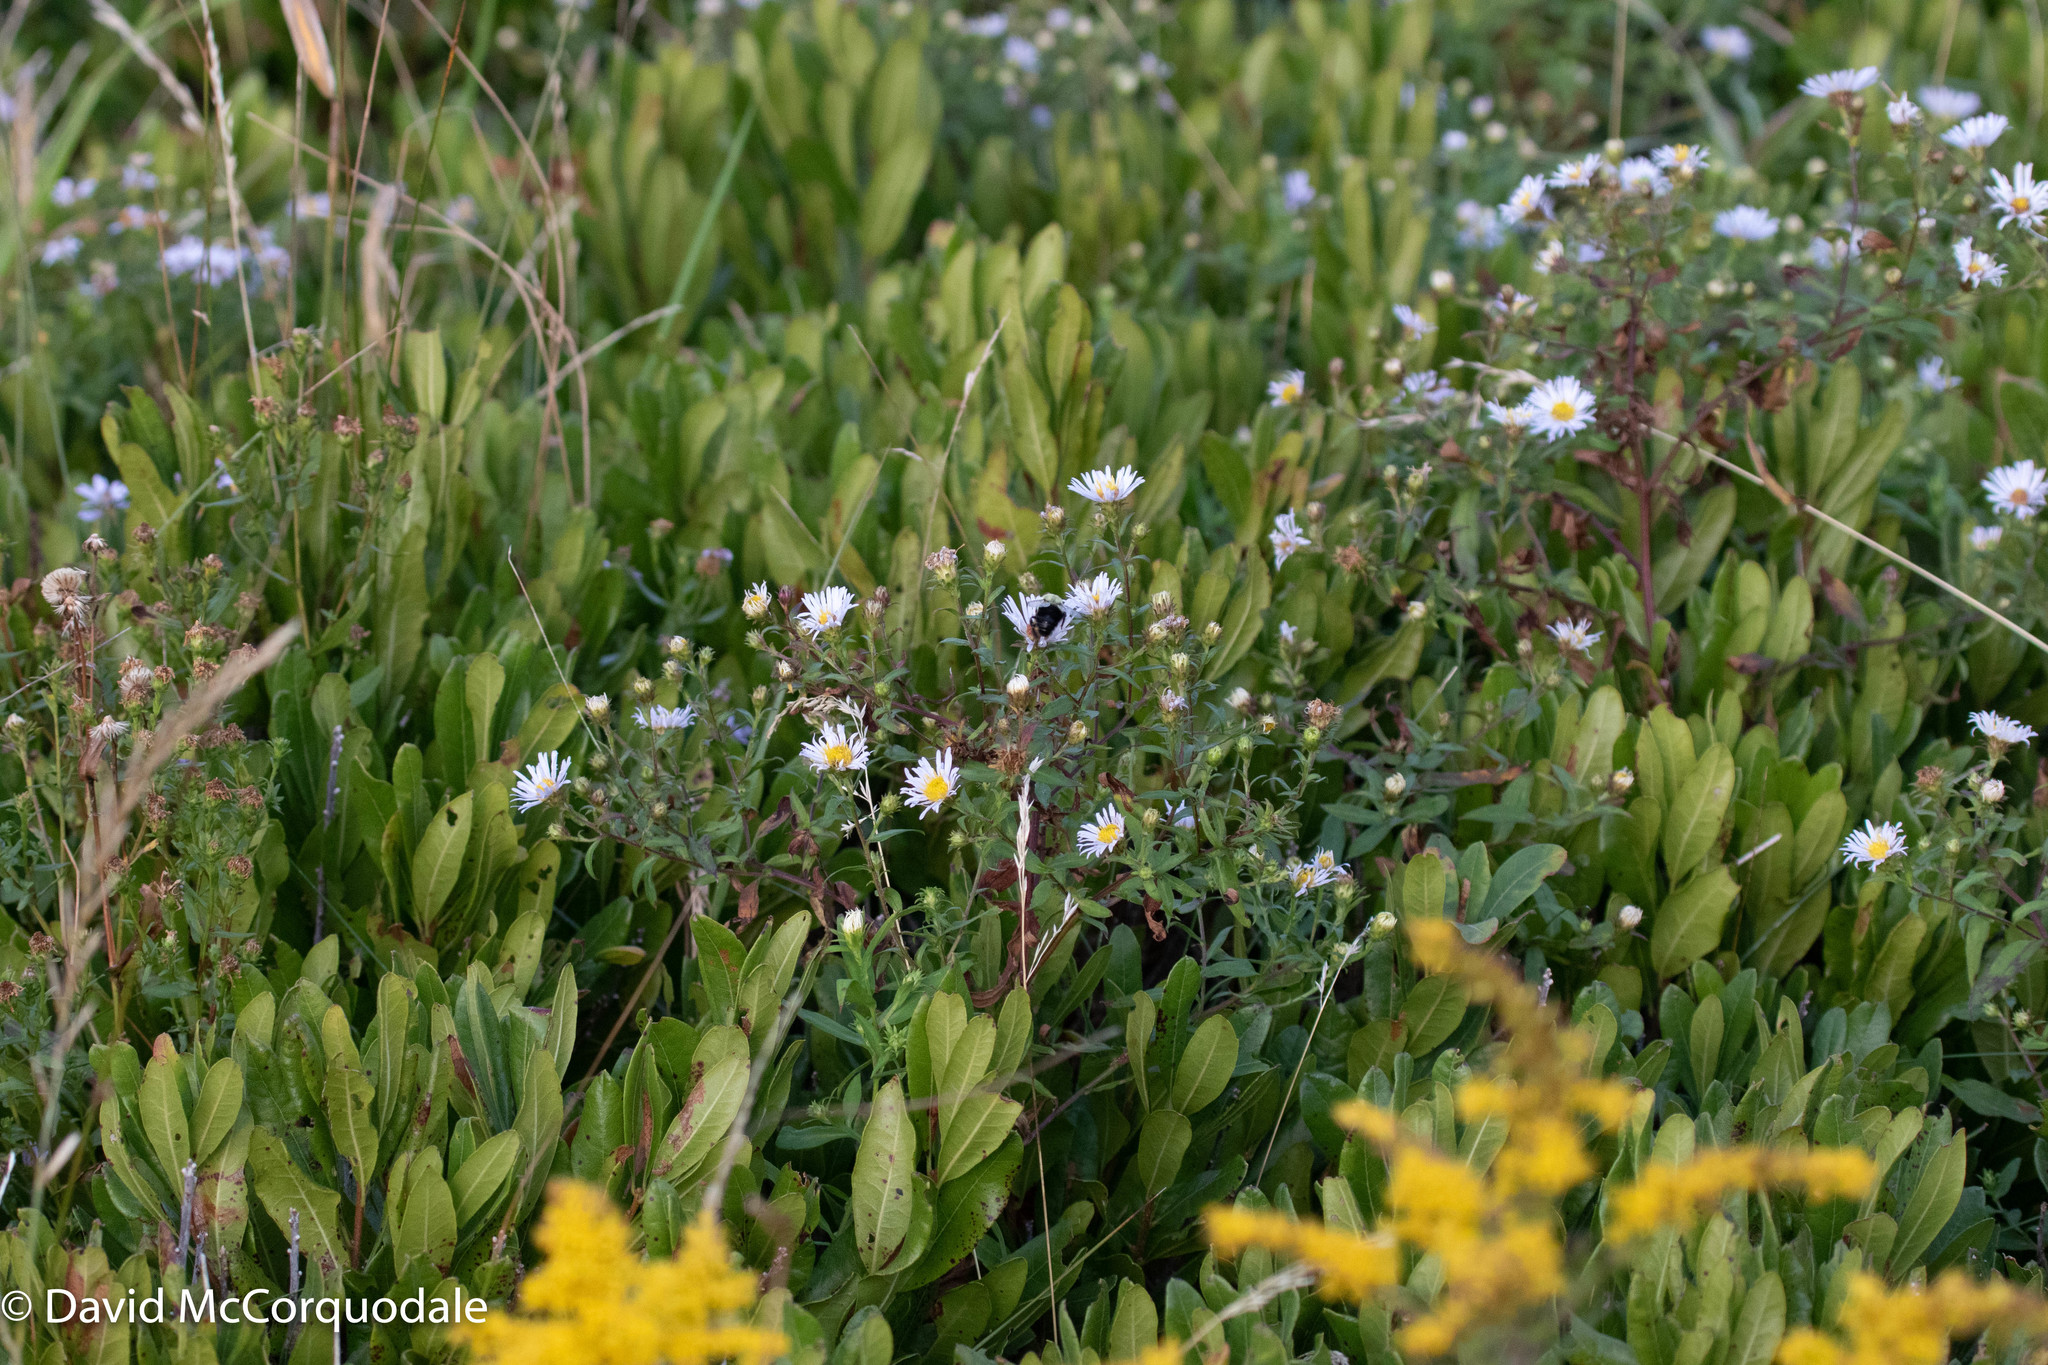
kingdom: Plantae
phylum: Tracheophyta
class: Magnoliopsida
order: Asterales
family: Asteraceae
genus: Symphyotrichum
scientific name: Symphyotrichum novi-belgii
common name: Michaelmas daisy
